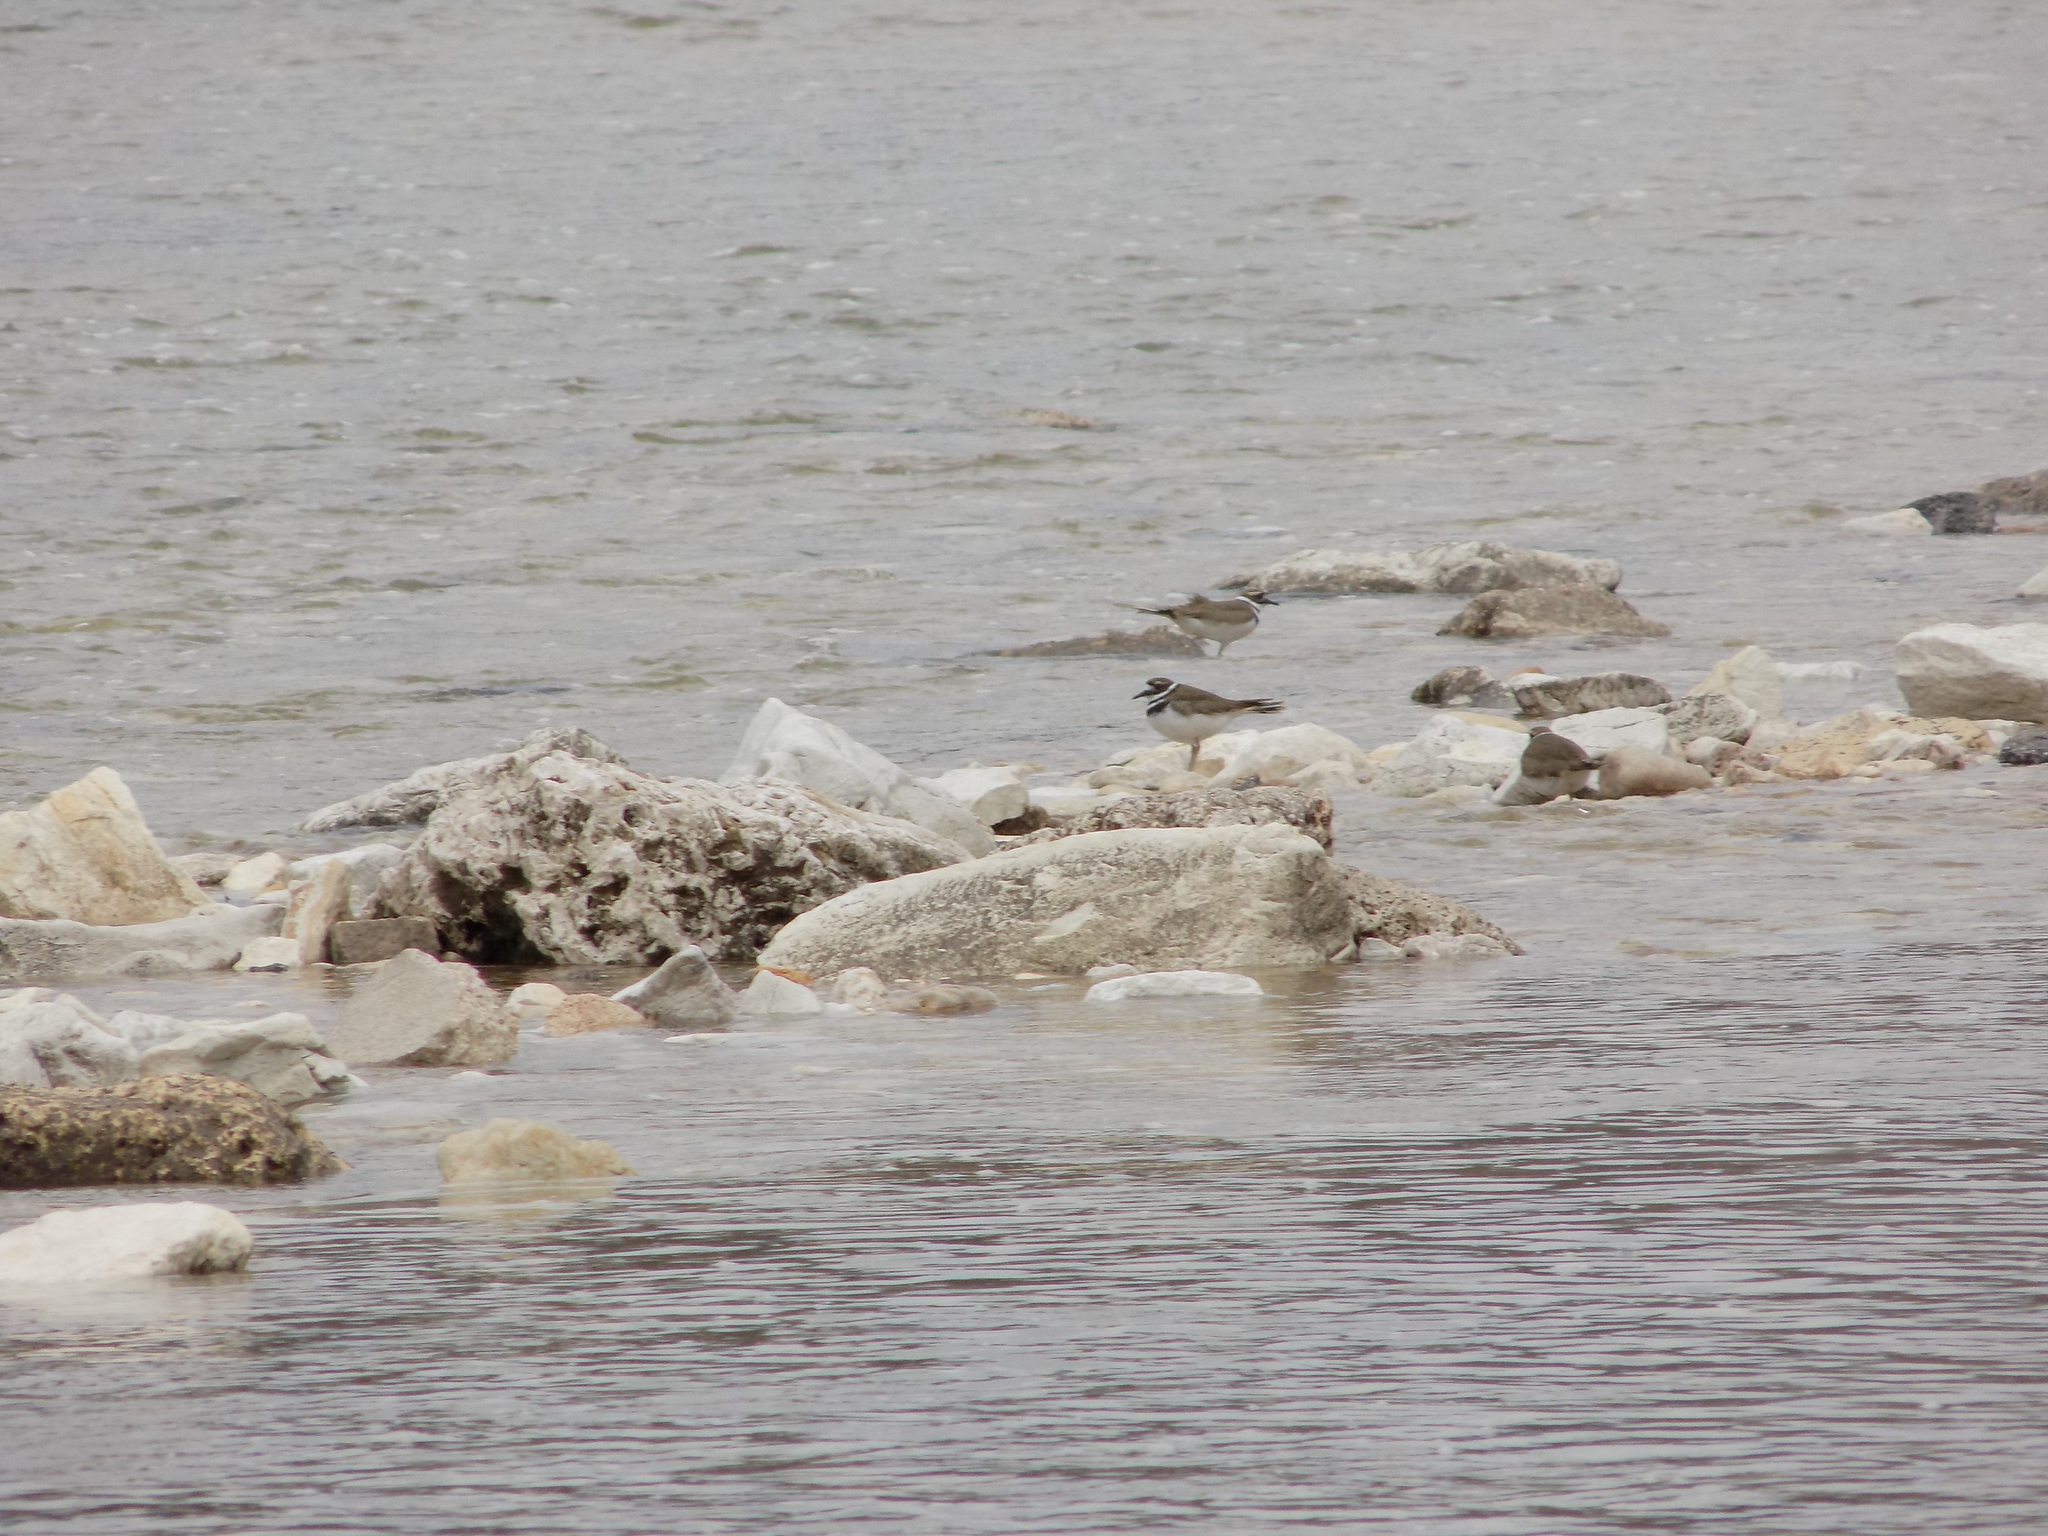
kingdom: Animalia
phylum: Chordata
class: Aves
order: Charadriiformes
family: Charadriidae
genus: Charadrius
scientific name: Charadrius vociferus
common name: Killdeer
